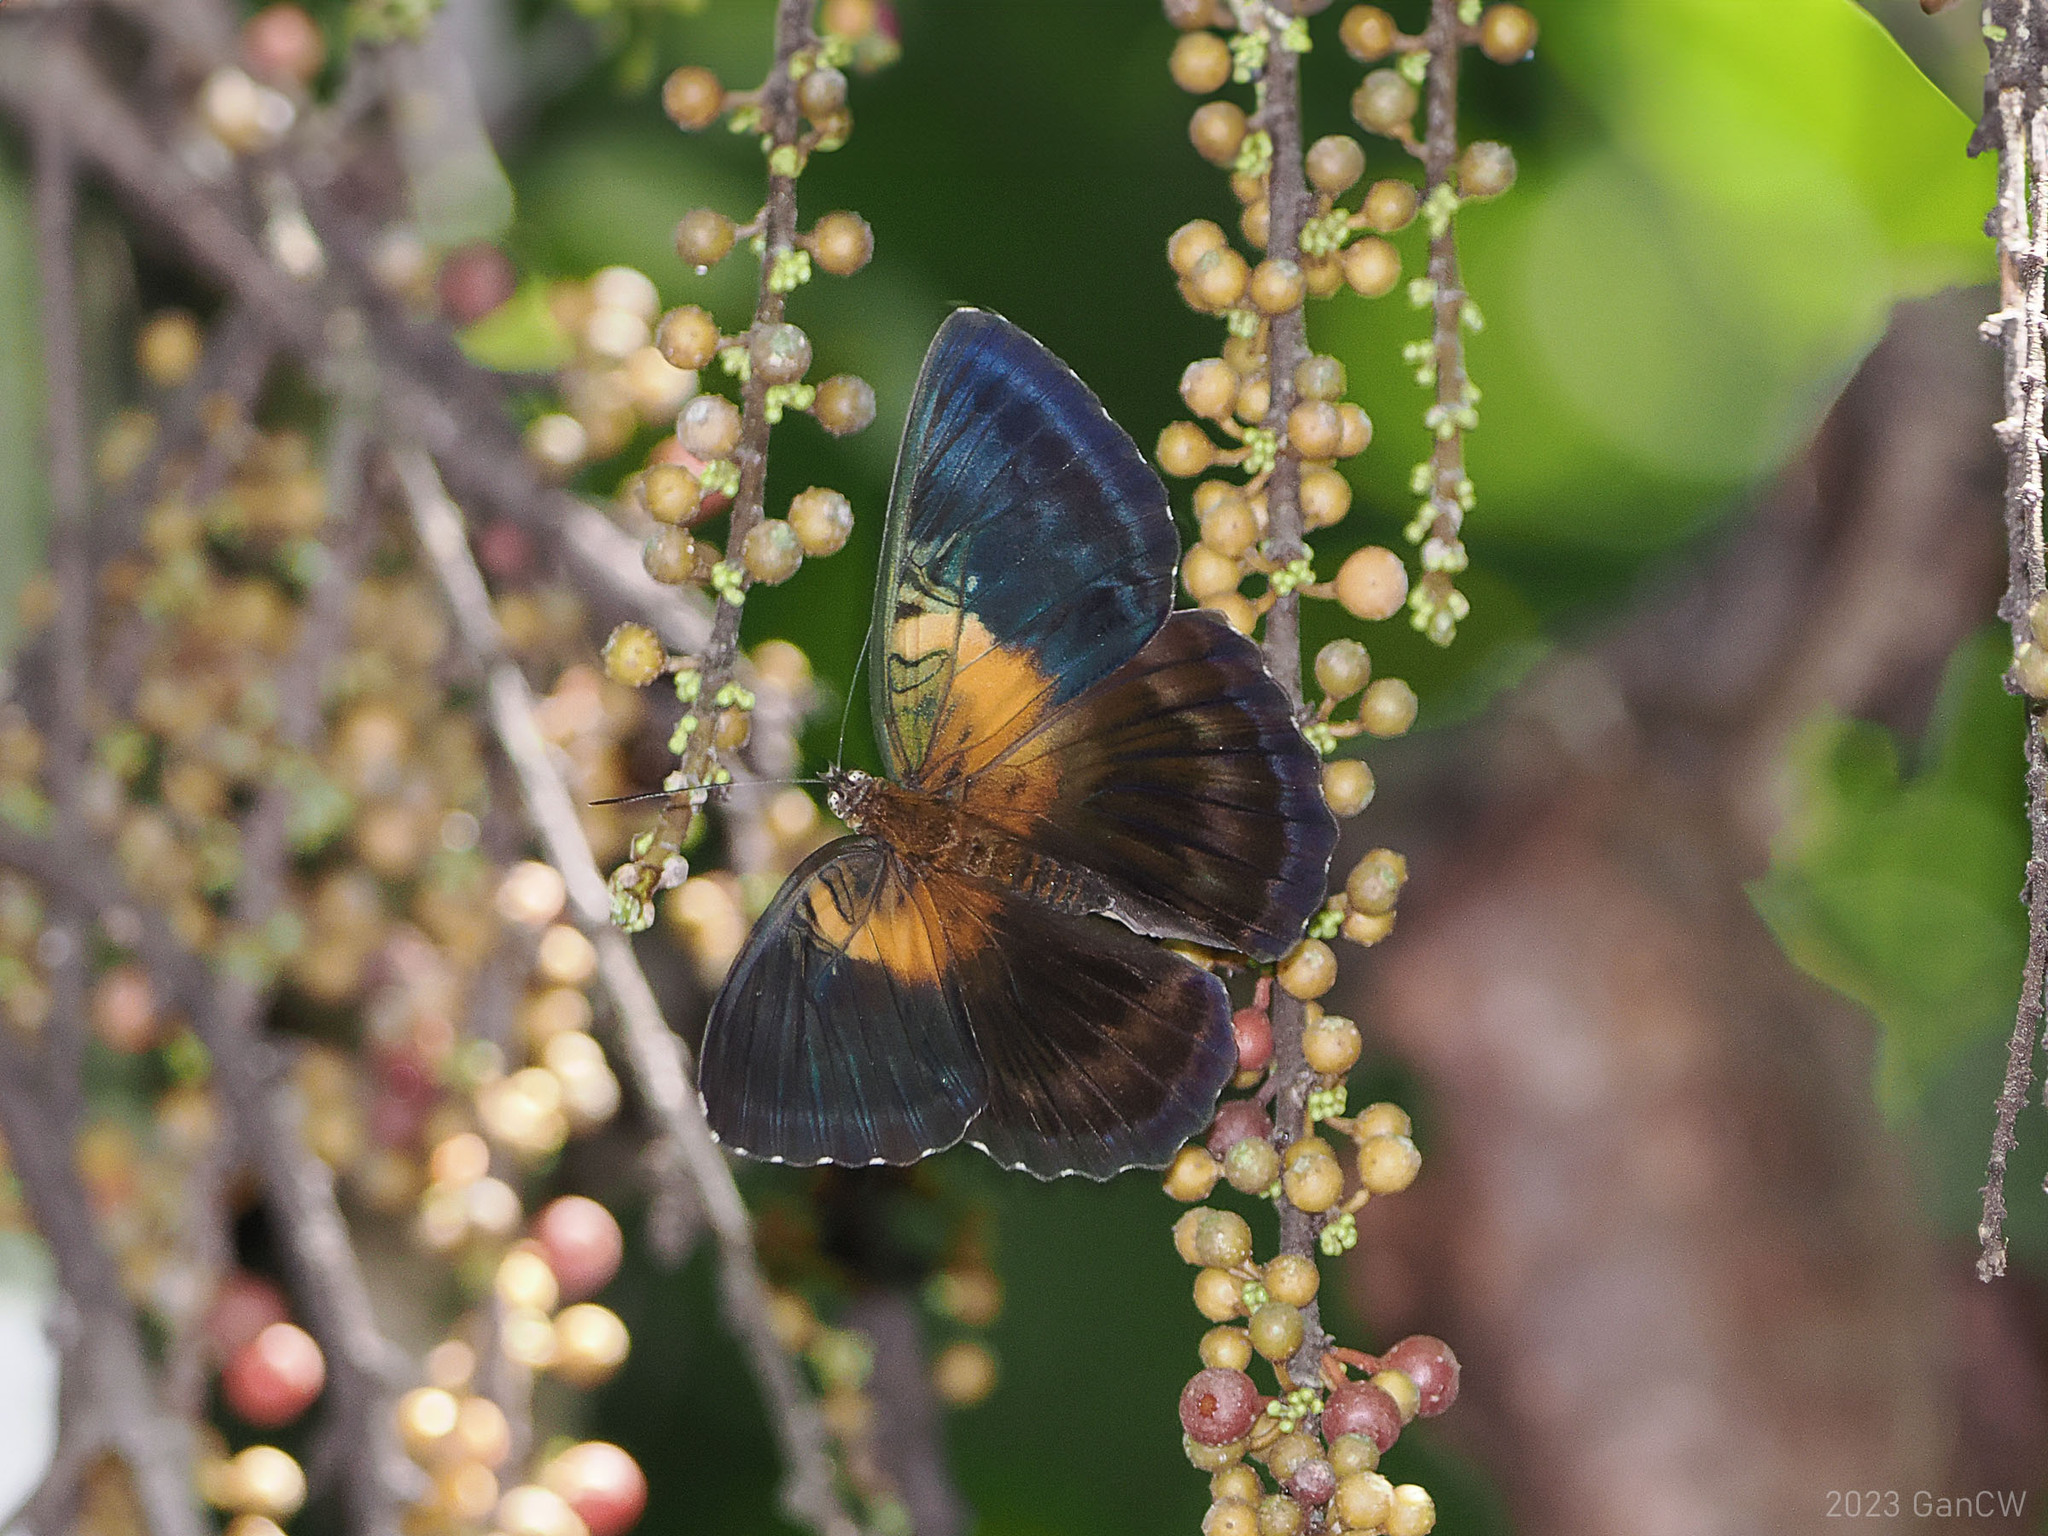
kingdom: Animalia
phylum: Arthropoda
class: Insecta
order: Lepidoptera
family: Nymphalidae
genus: Parthenos
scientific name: Parthenos aspila
